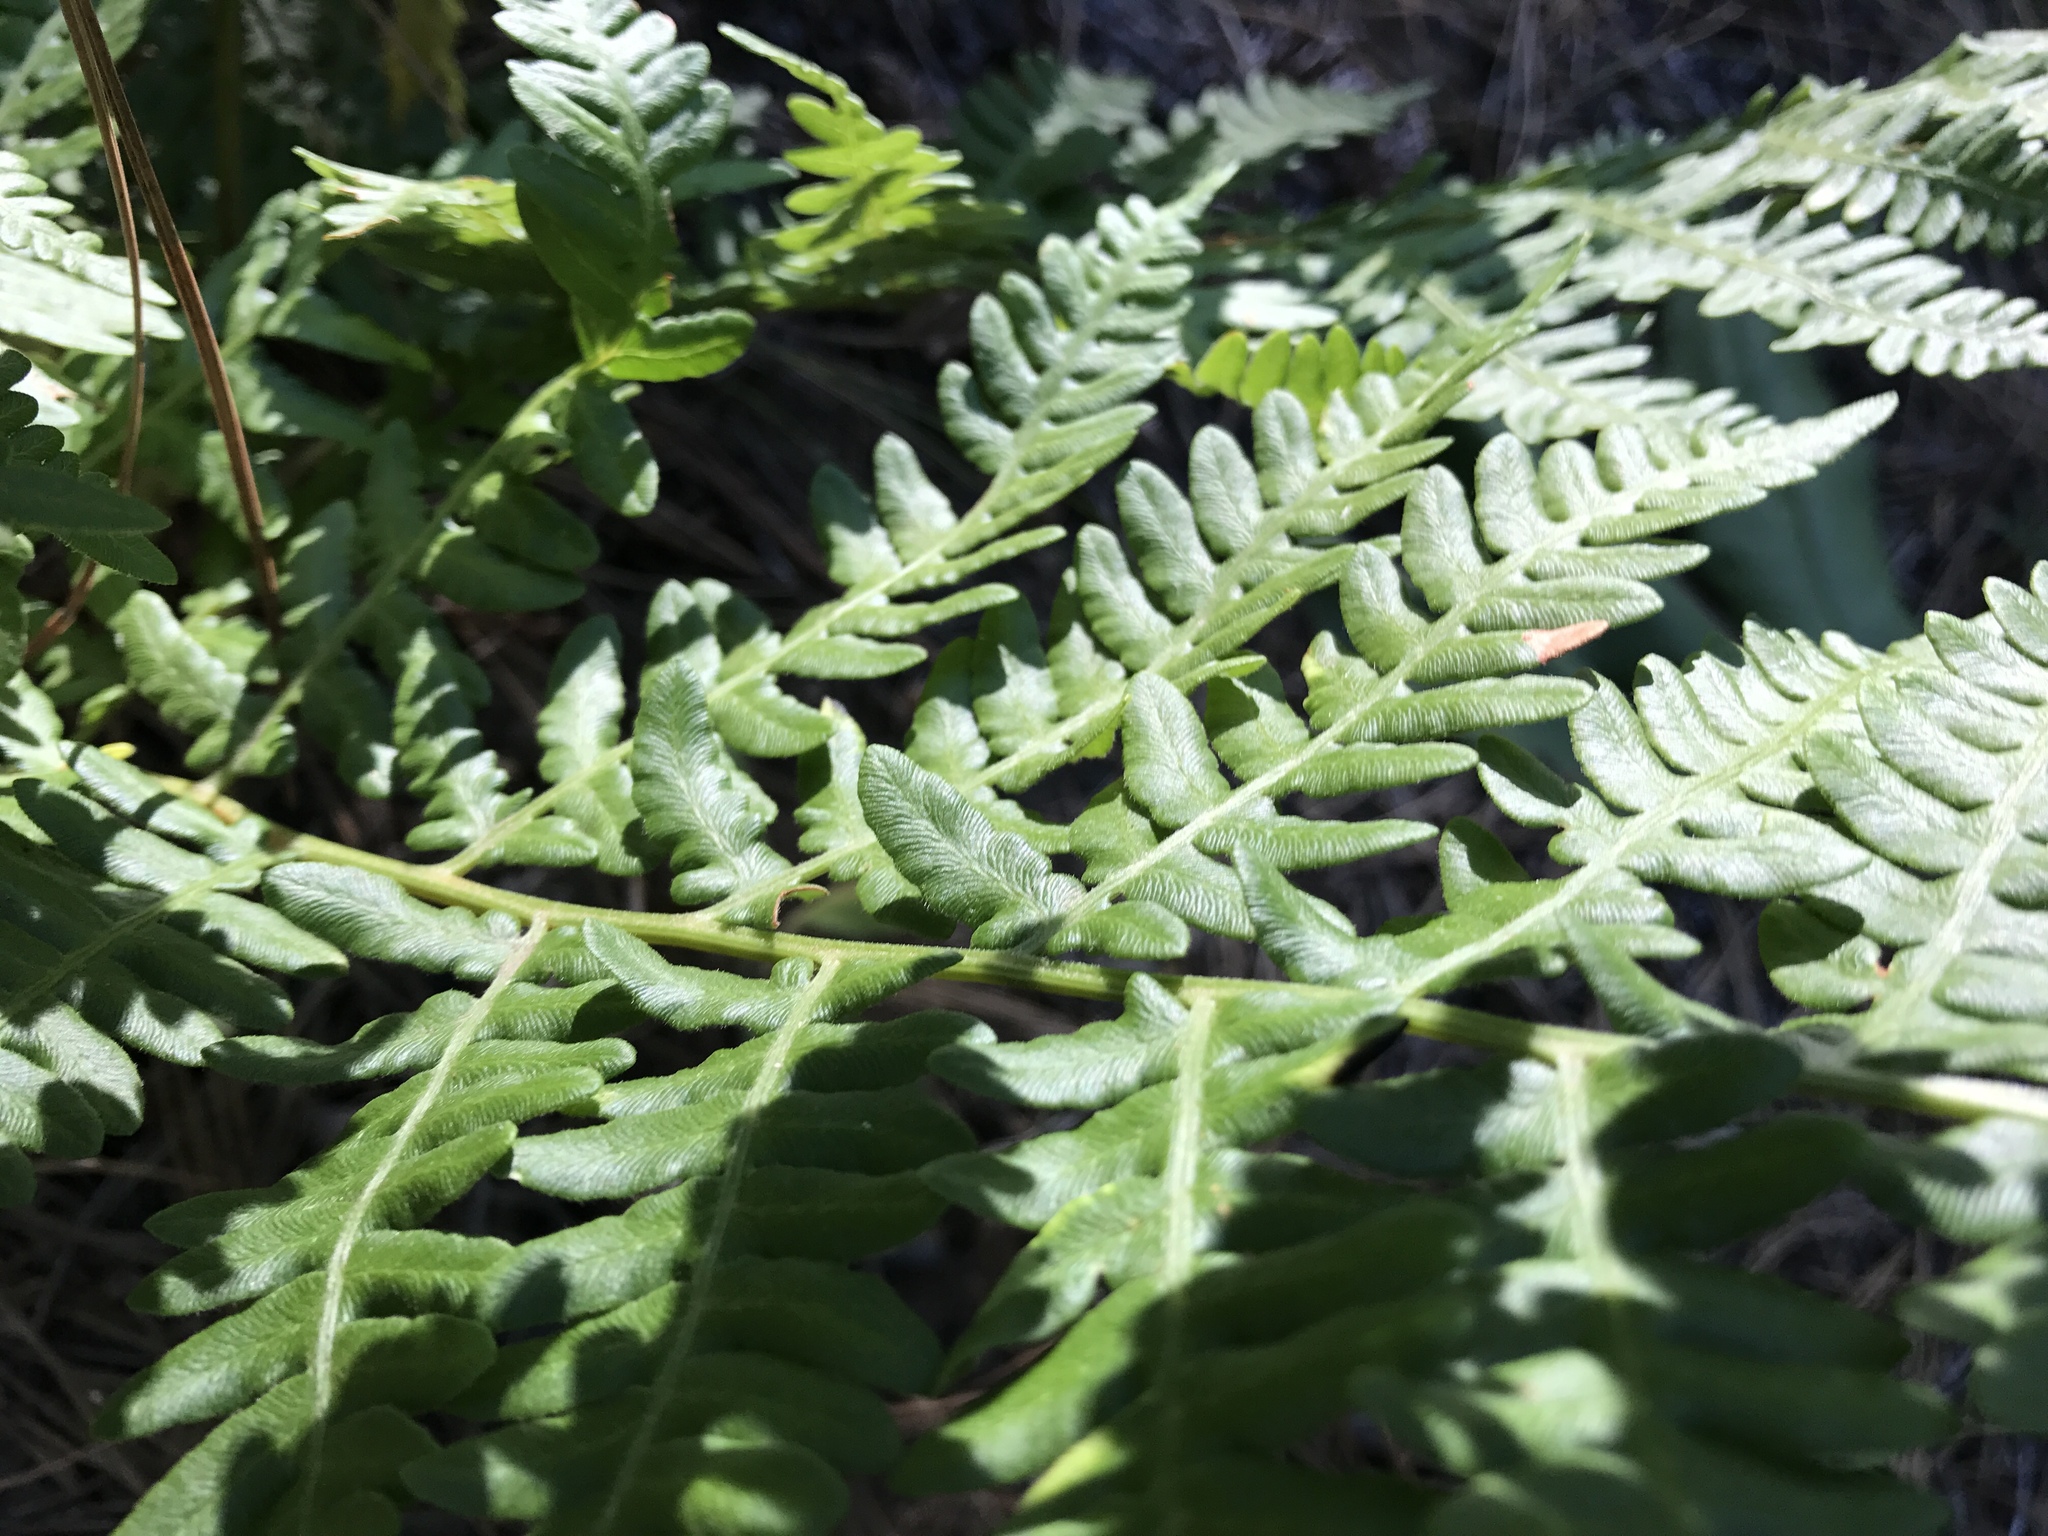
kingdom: Plantae
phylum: Tracheophyta
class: Polypodiopsida
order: Polypodiales
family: Dennstaedtiaceae
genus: Pteridium
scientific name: Pteridium aquilinum
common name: Bracken
